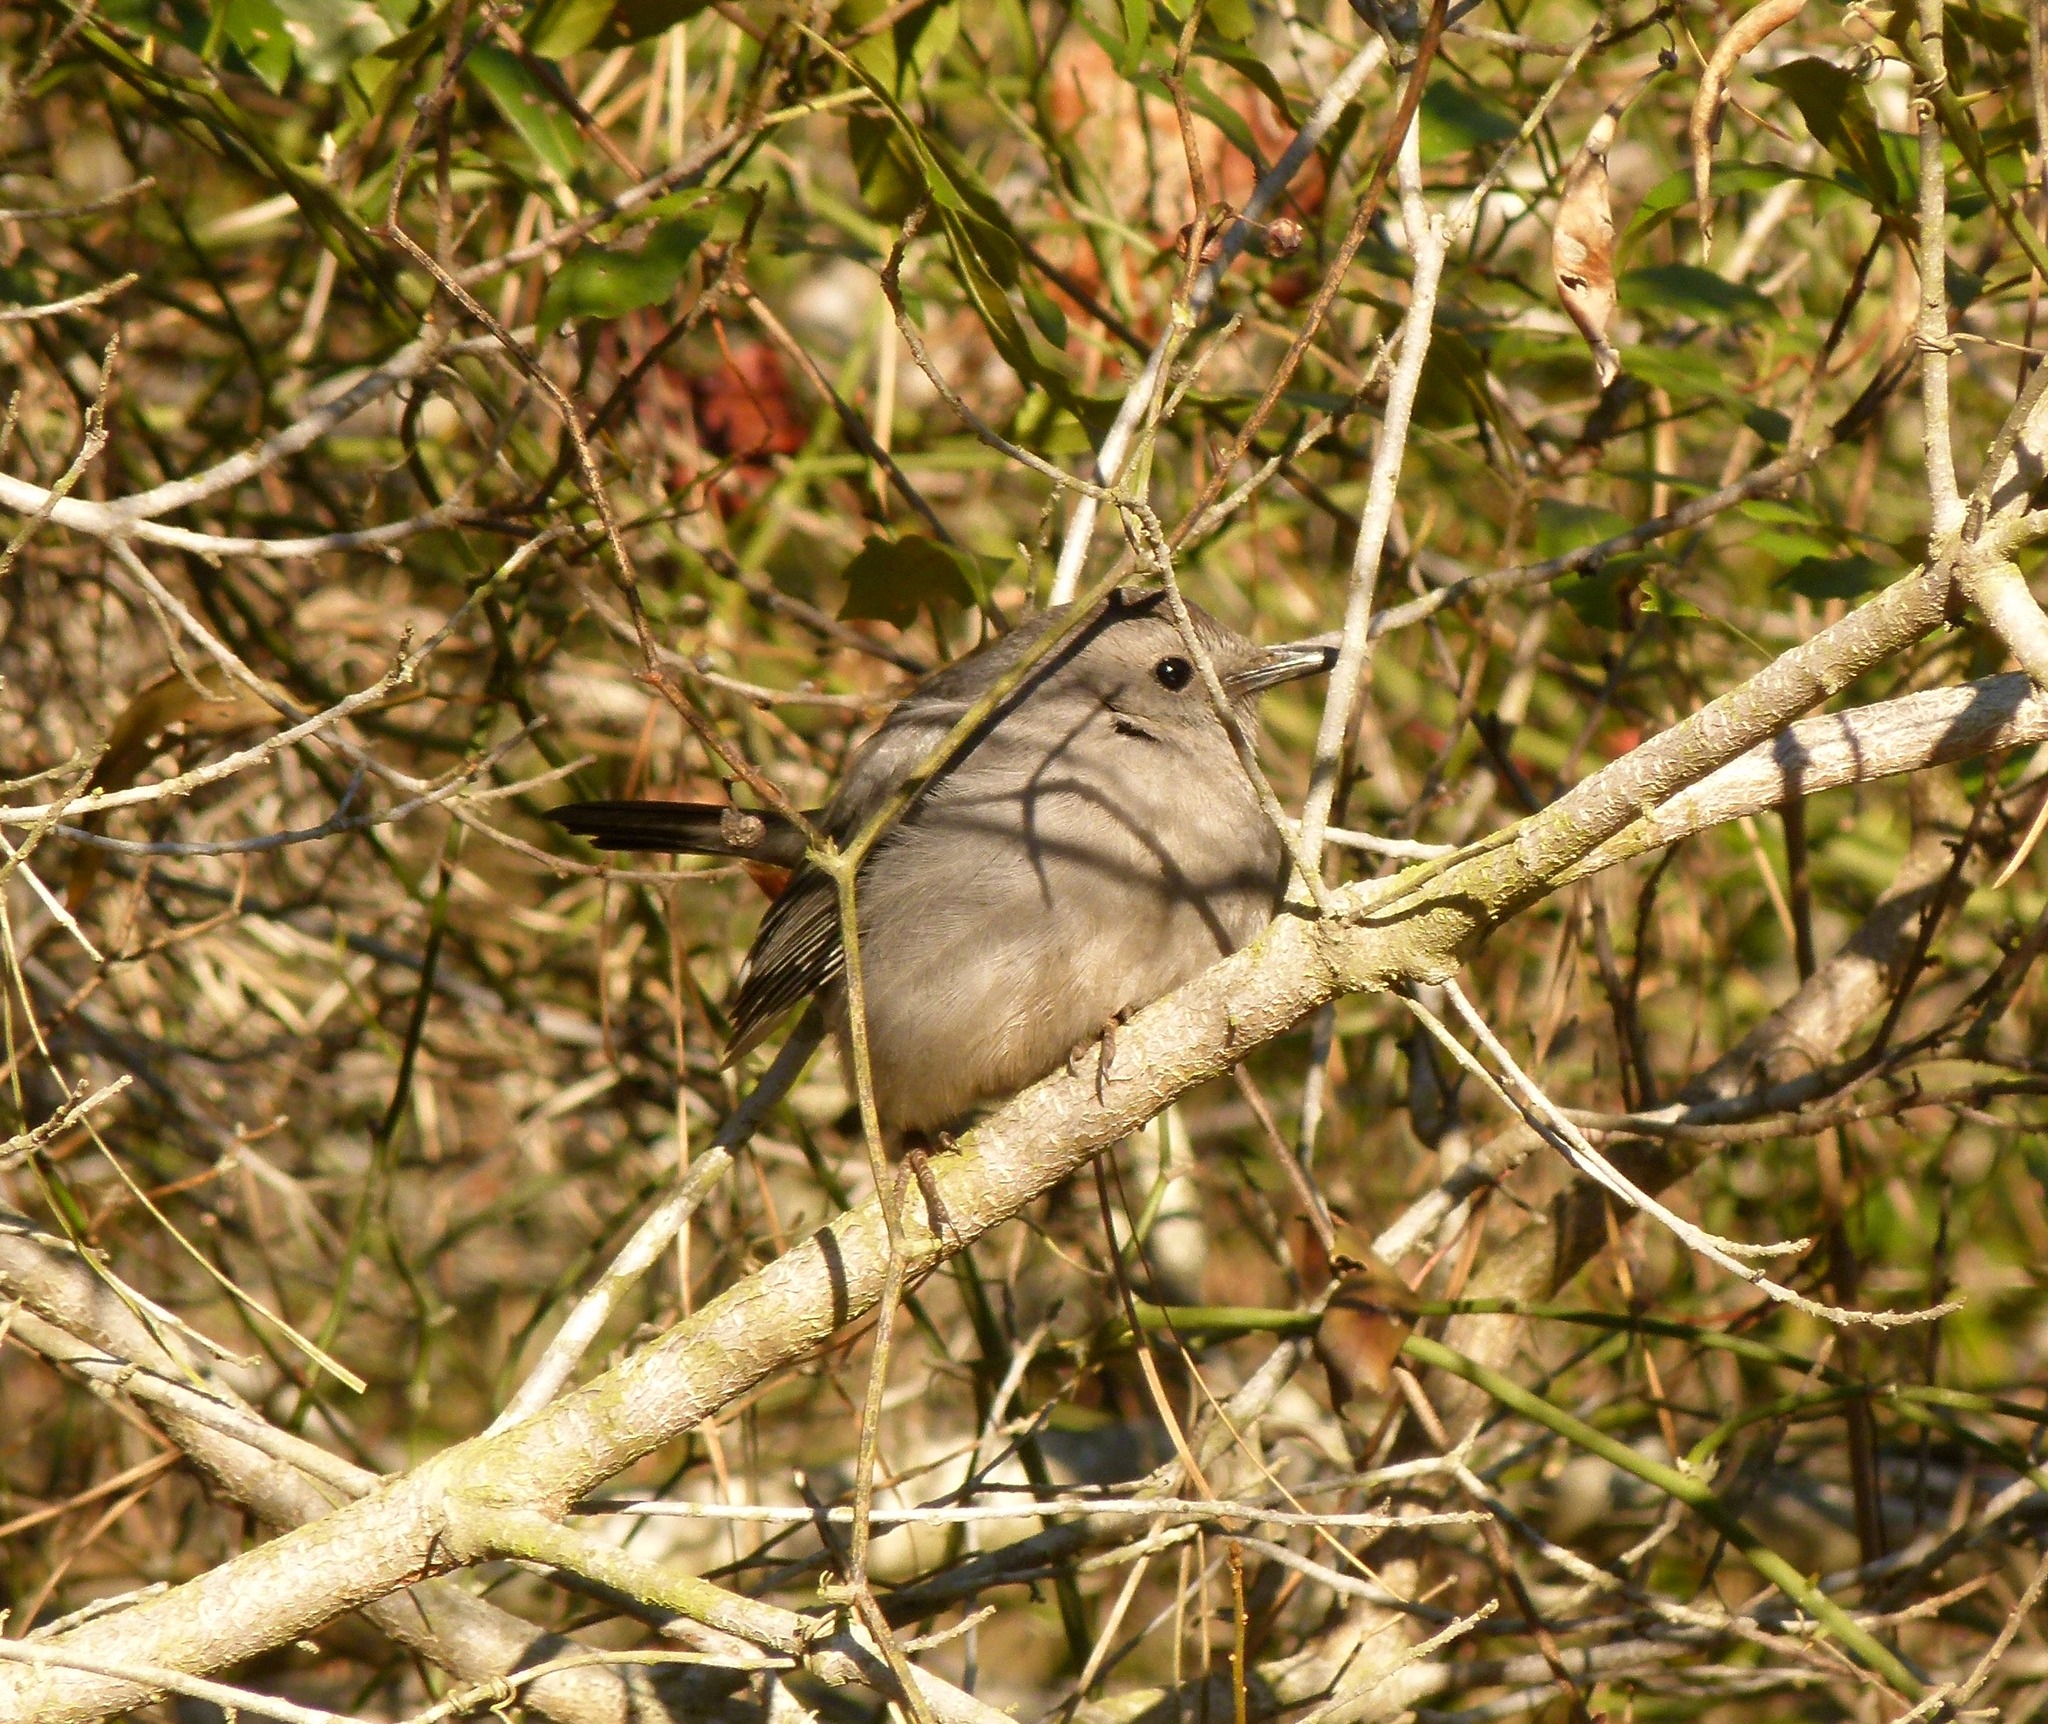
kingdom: Animalia
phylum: Chordata
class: Aves
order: Passeriformes
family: Mimidae
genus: Dumetella
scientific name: Dumetella carolinensis
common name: Gray catbird
